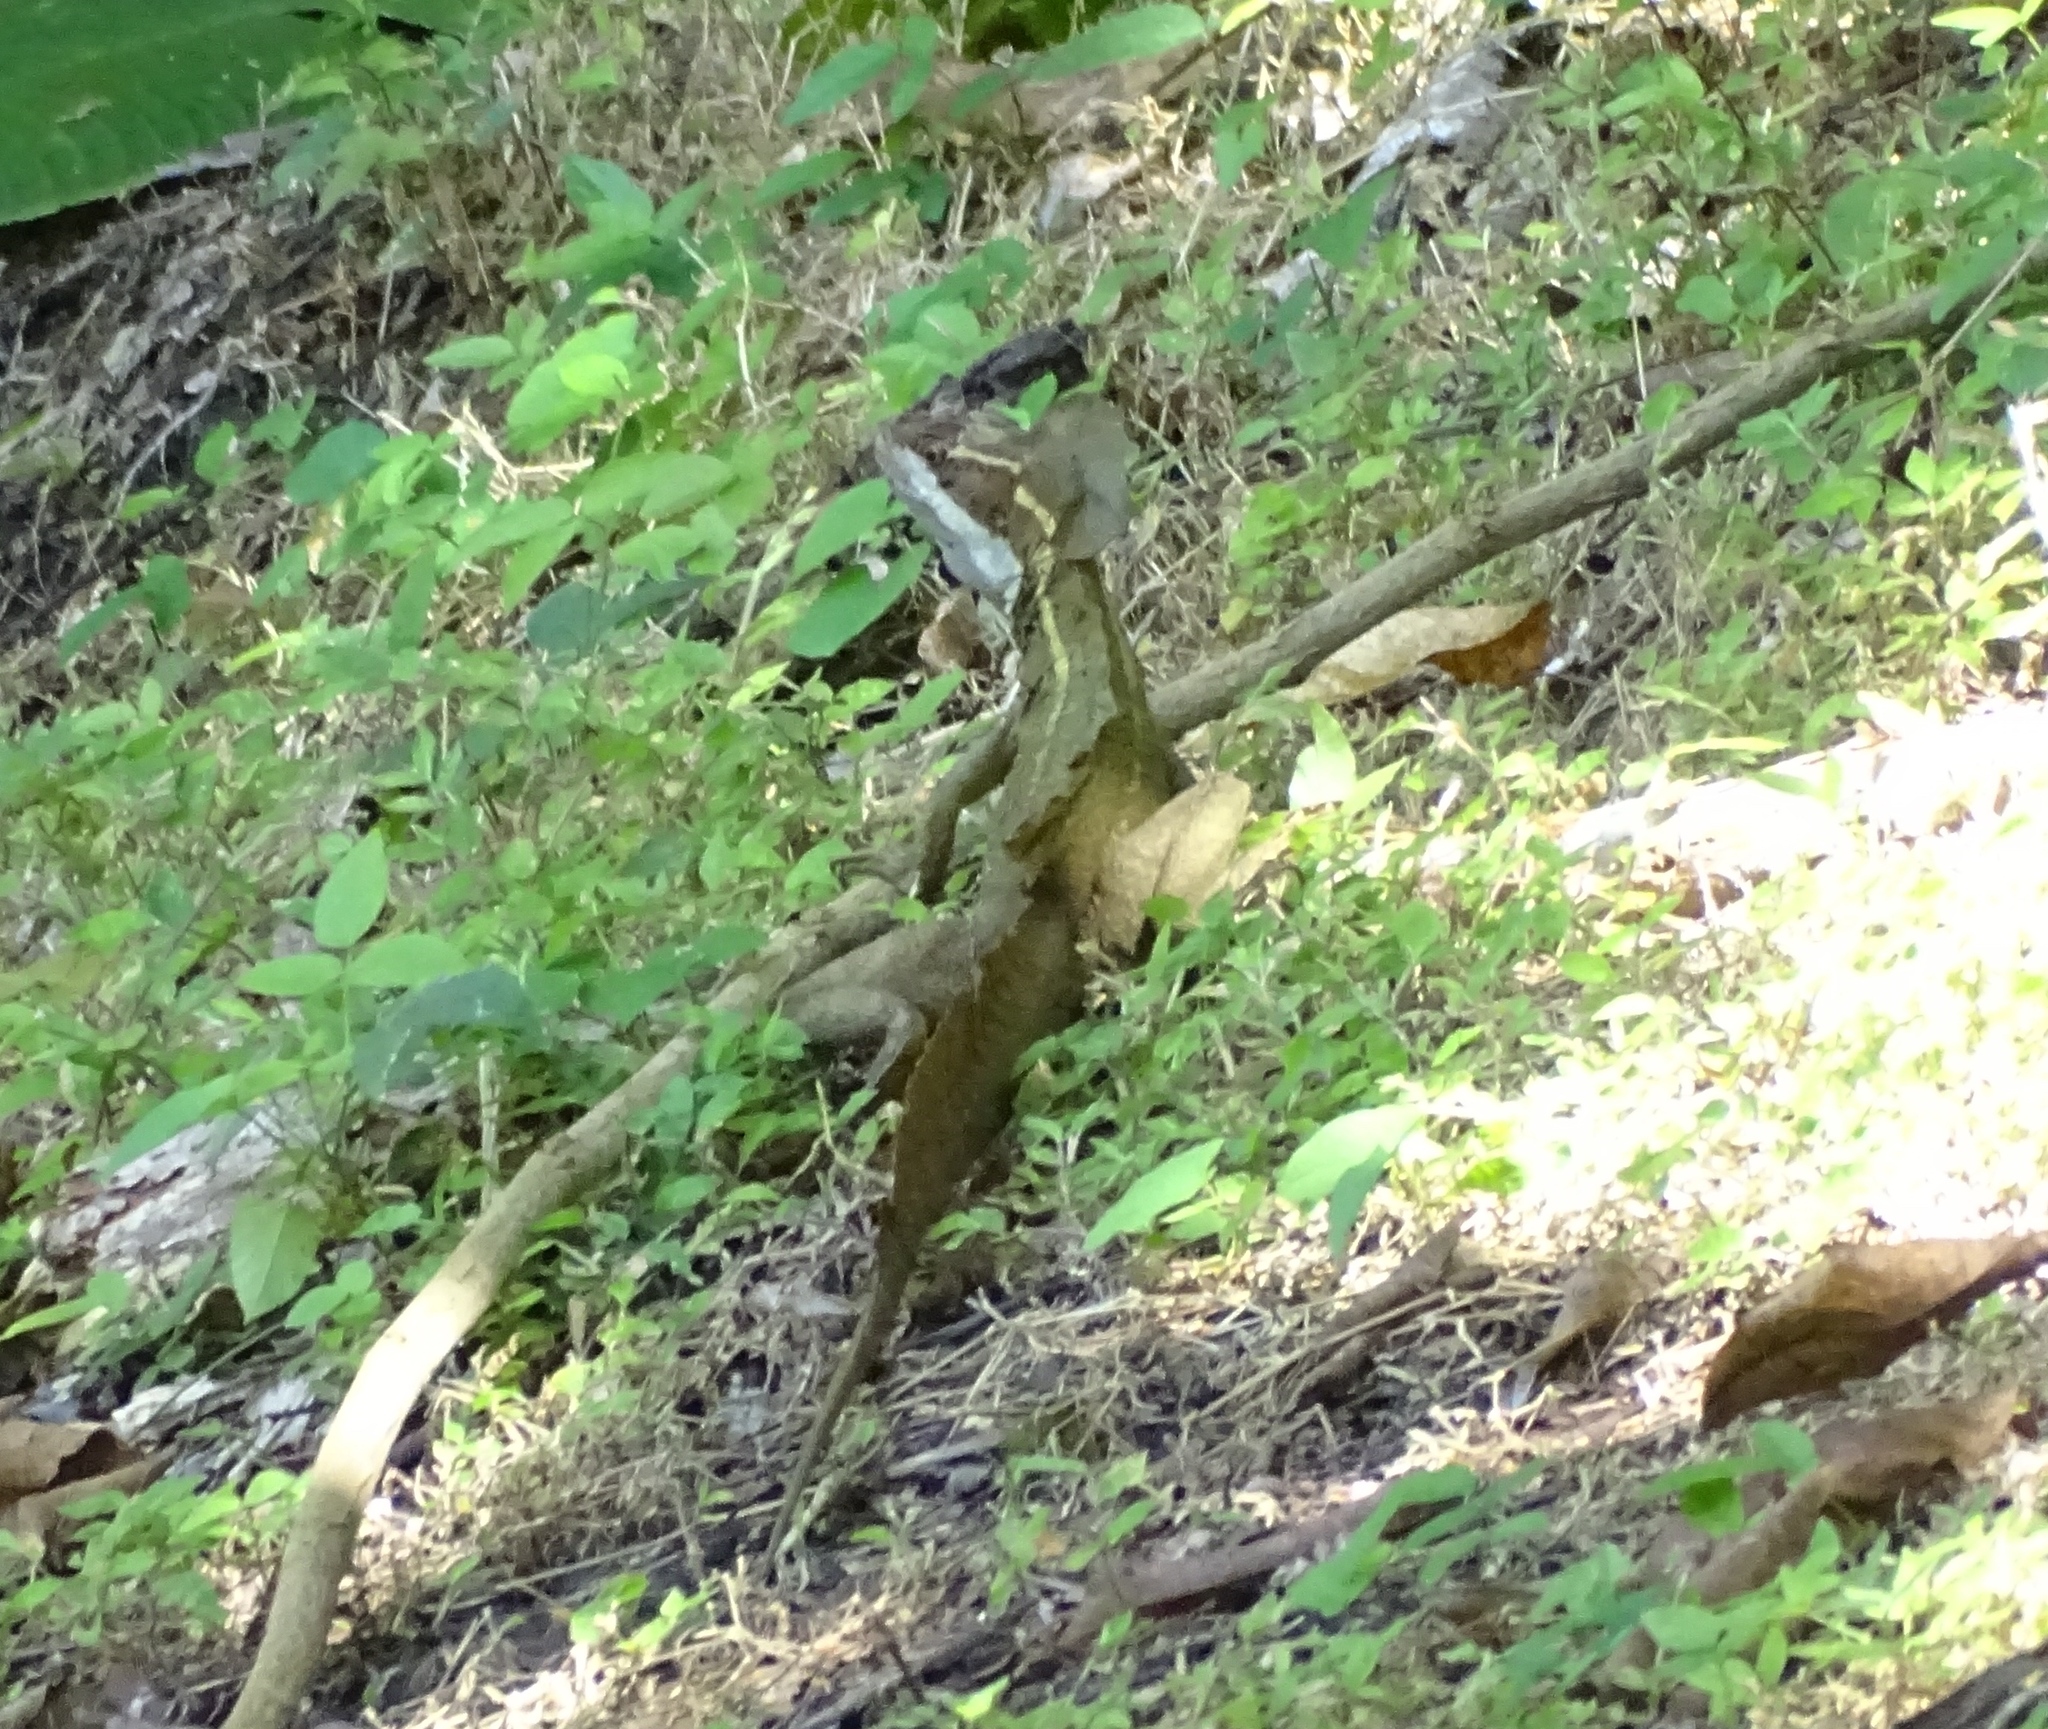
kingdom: Animalia
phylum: Chordata
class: Squamata
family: Corytophanidae
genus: Basiliscus
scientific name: Basiliscus basiliscus
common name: Common basilisk
